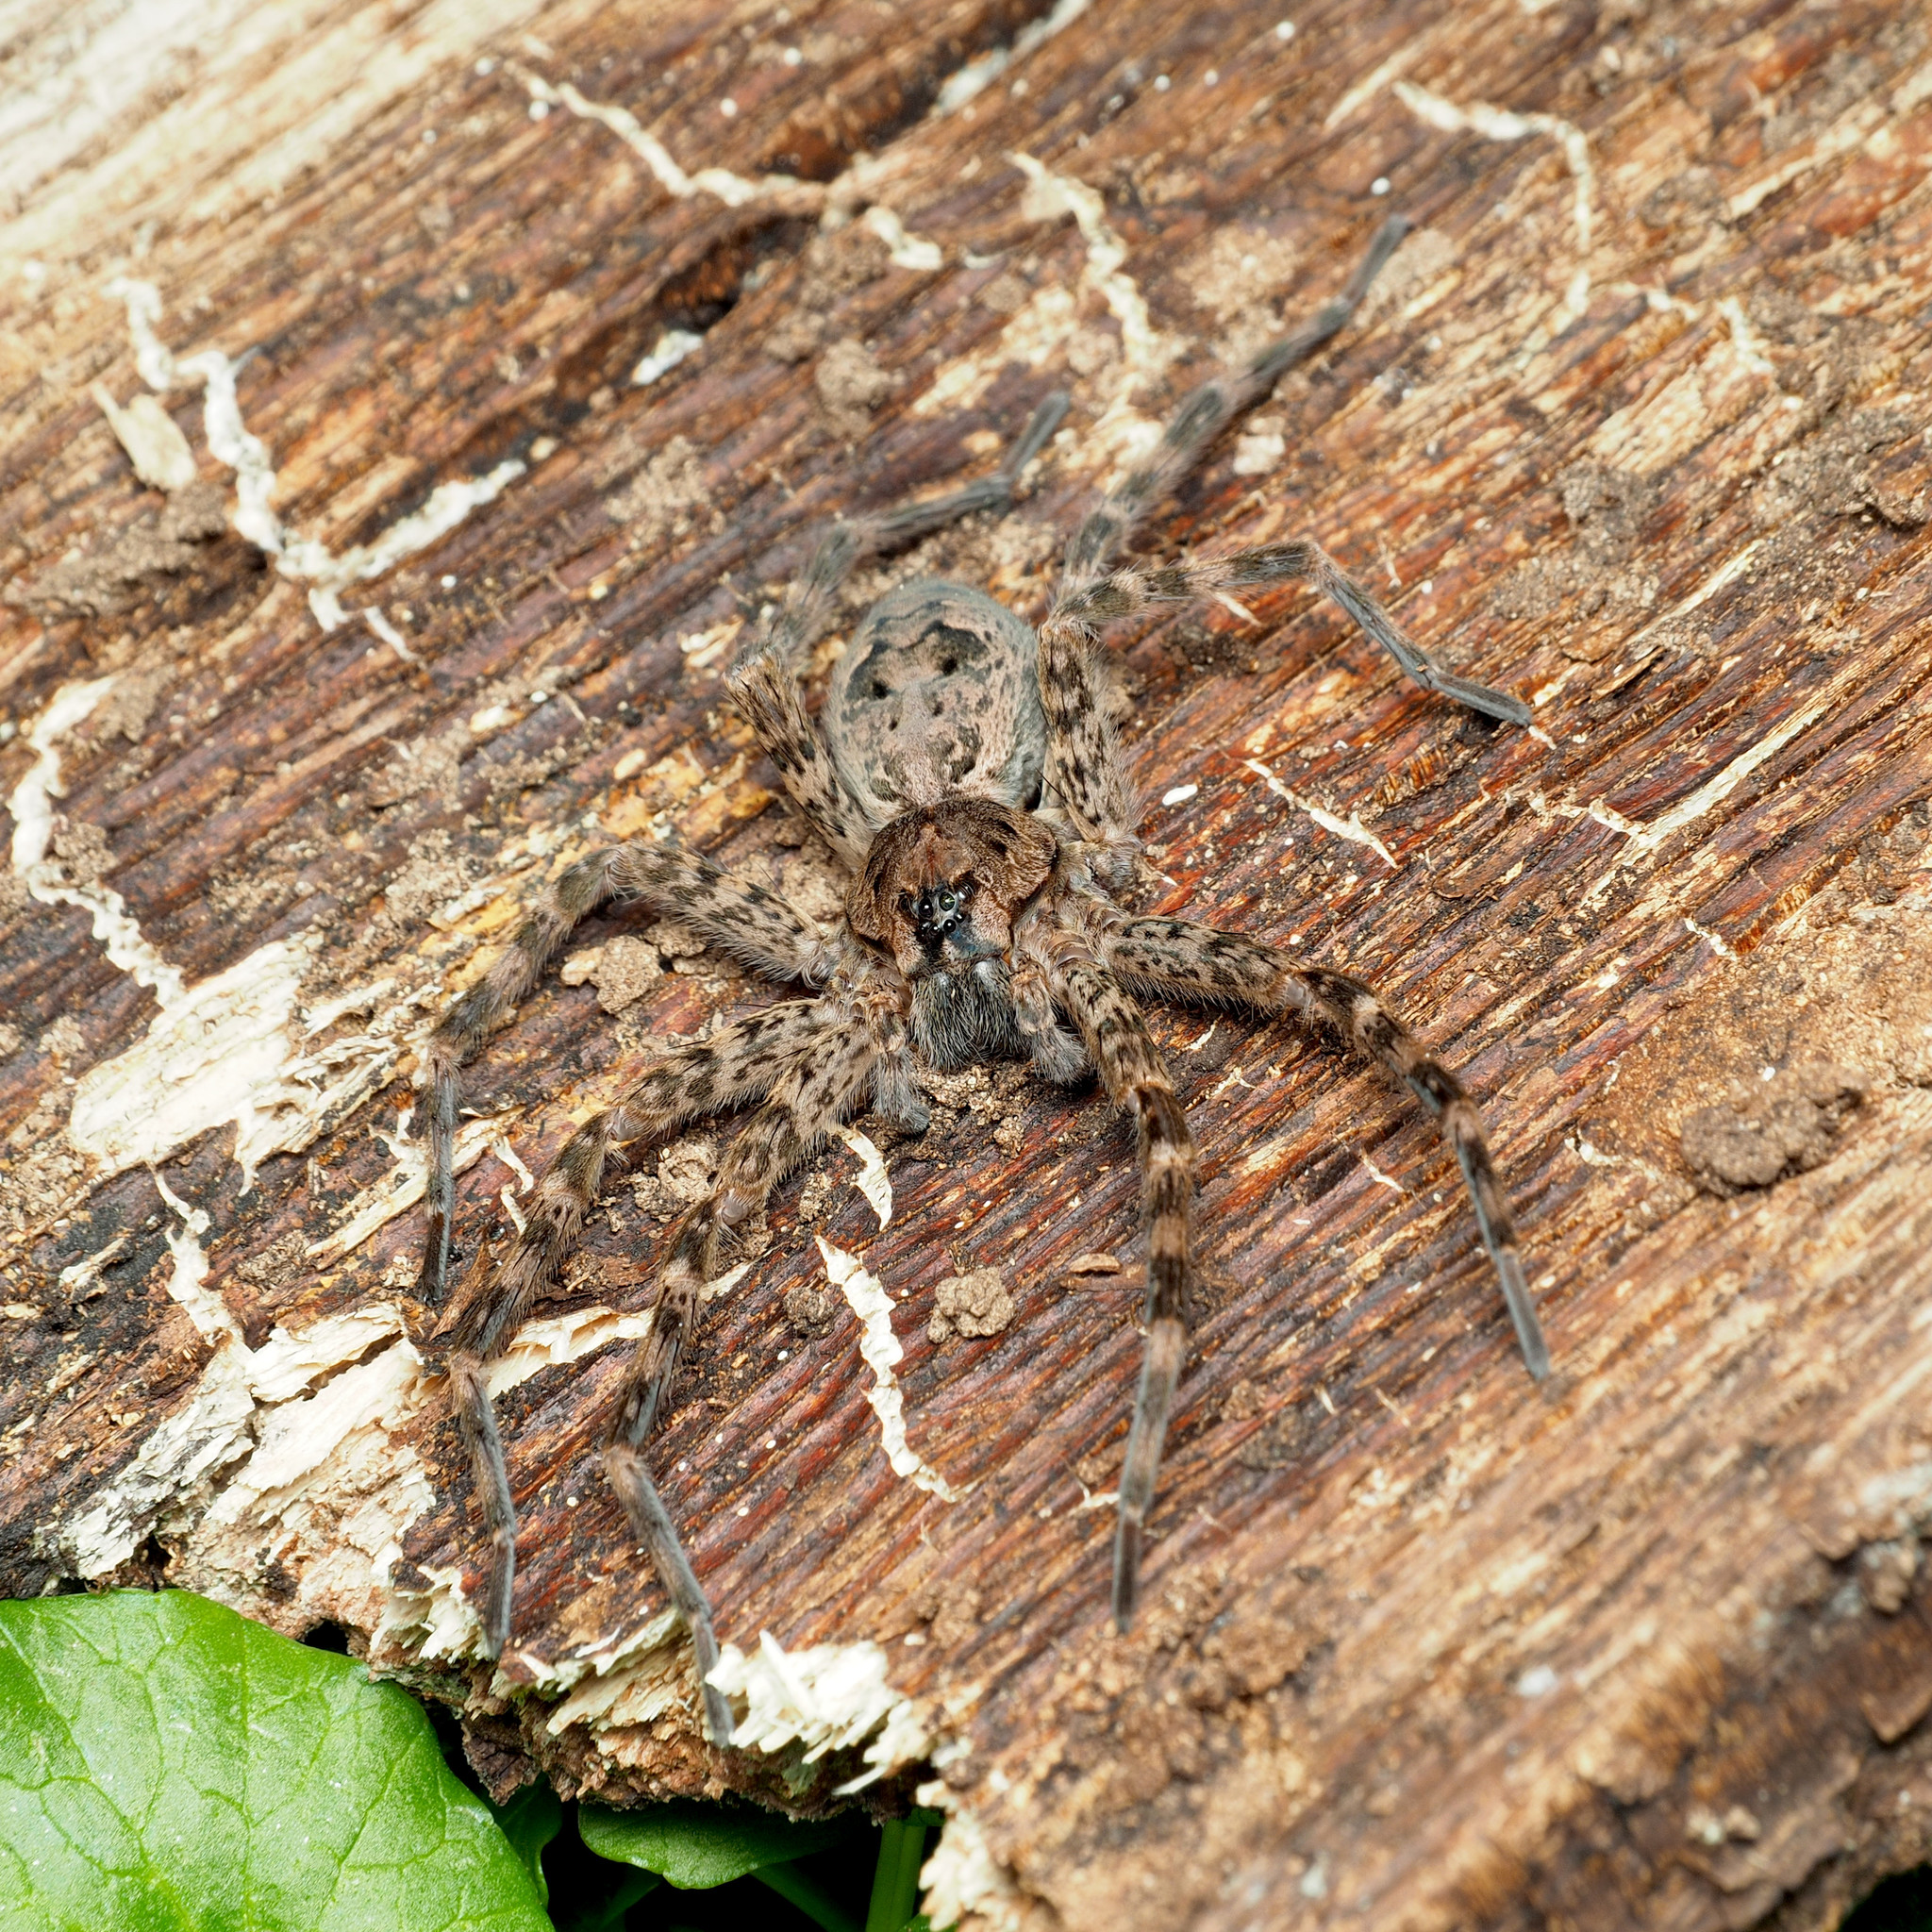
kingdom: Animalia
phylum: Arthropoda
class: Arachnida
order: Araneae
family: Pisauridae
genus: Dolomedes
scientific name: Dolomedes tenebrosus
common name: Dark fishing spider
